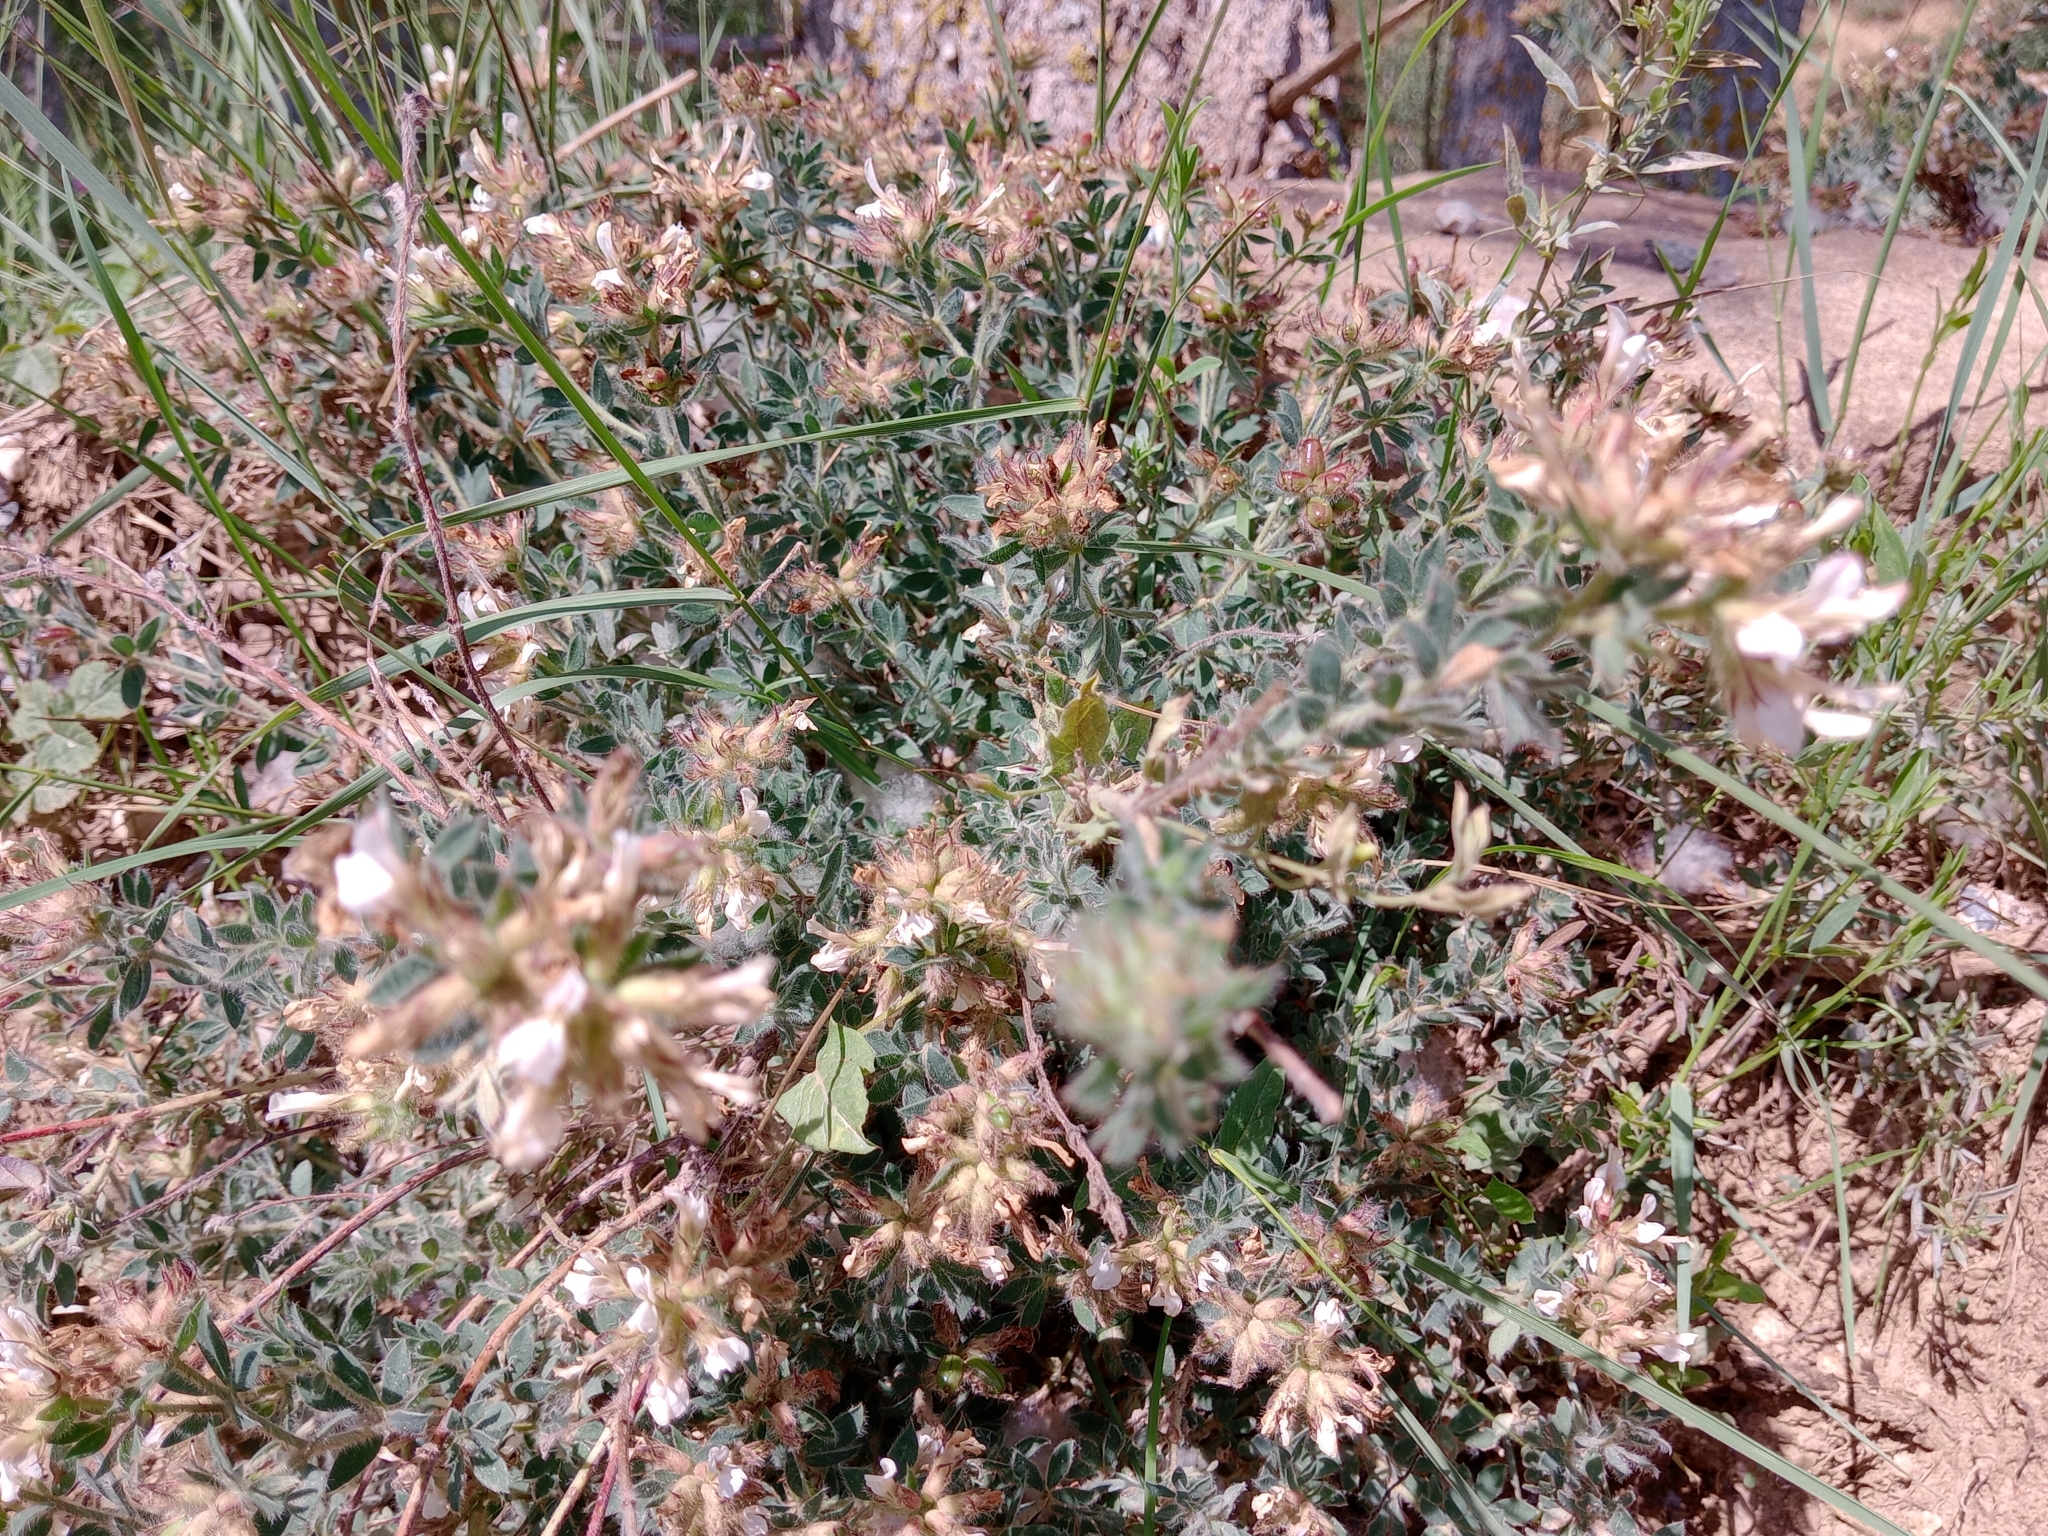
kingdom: Plantae
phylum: Tracheophyta
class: Magnoliopsida
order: Fabales
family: Fabaceae
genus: Lotus
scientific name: Lotus hirsutus
